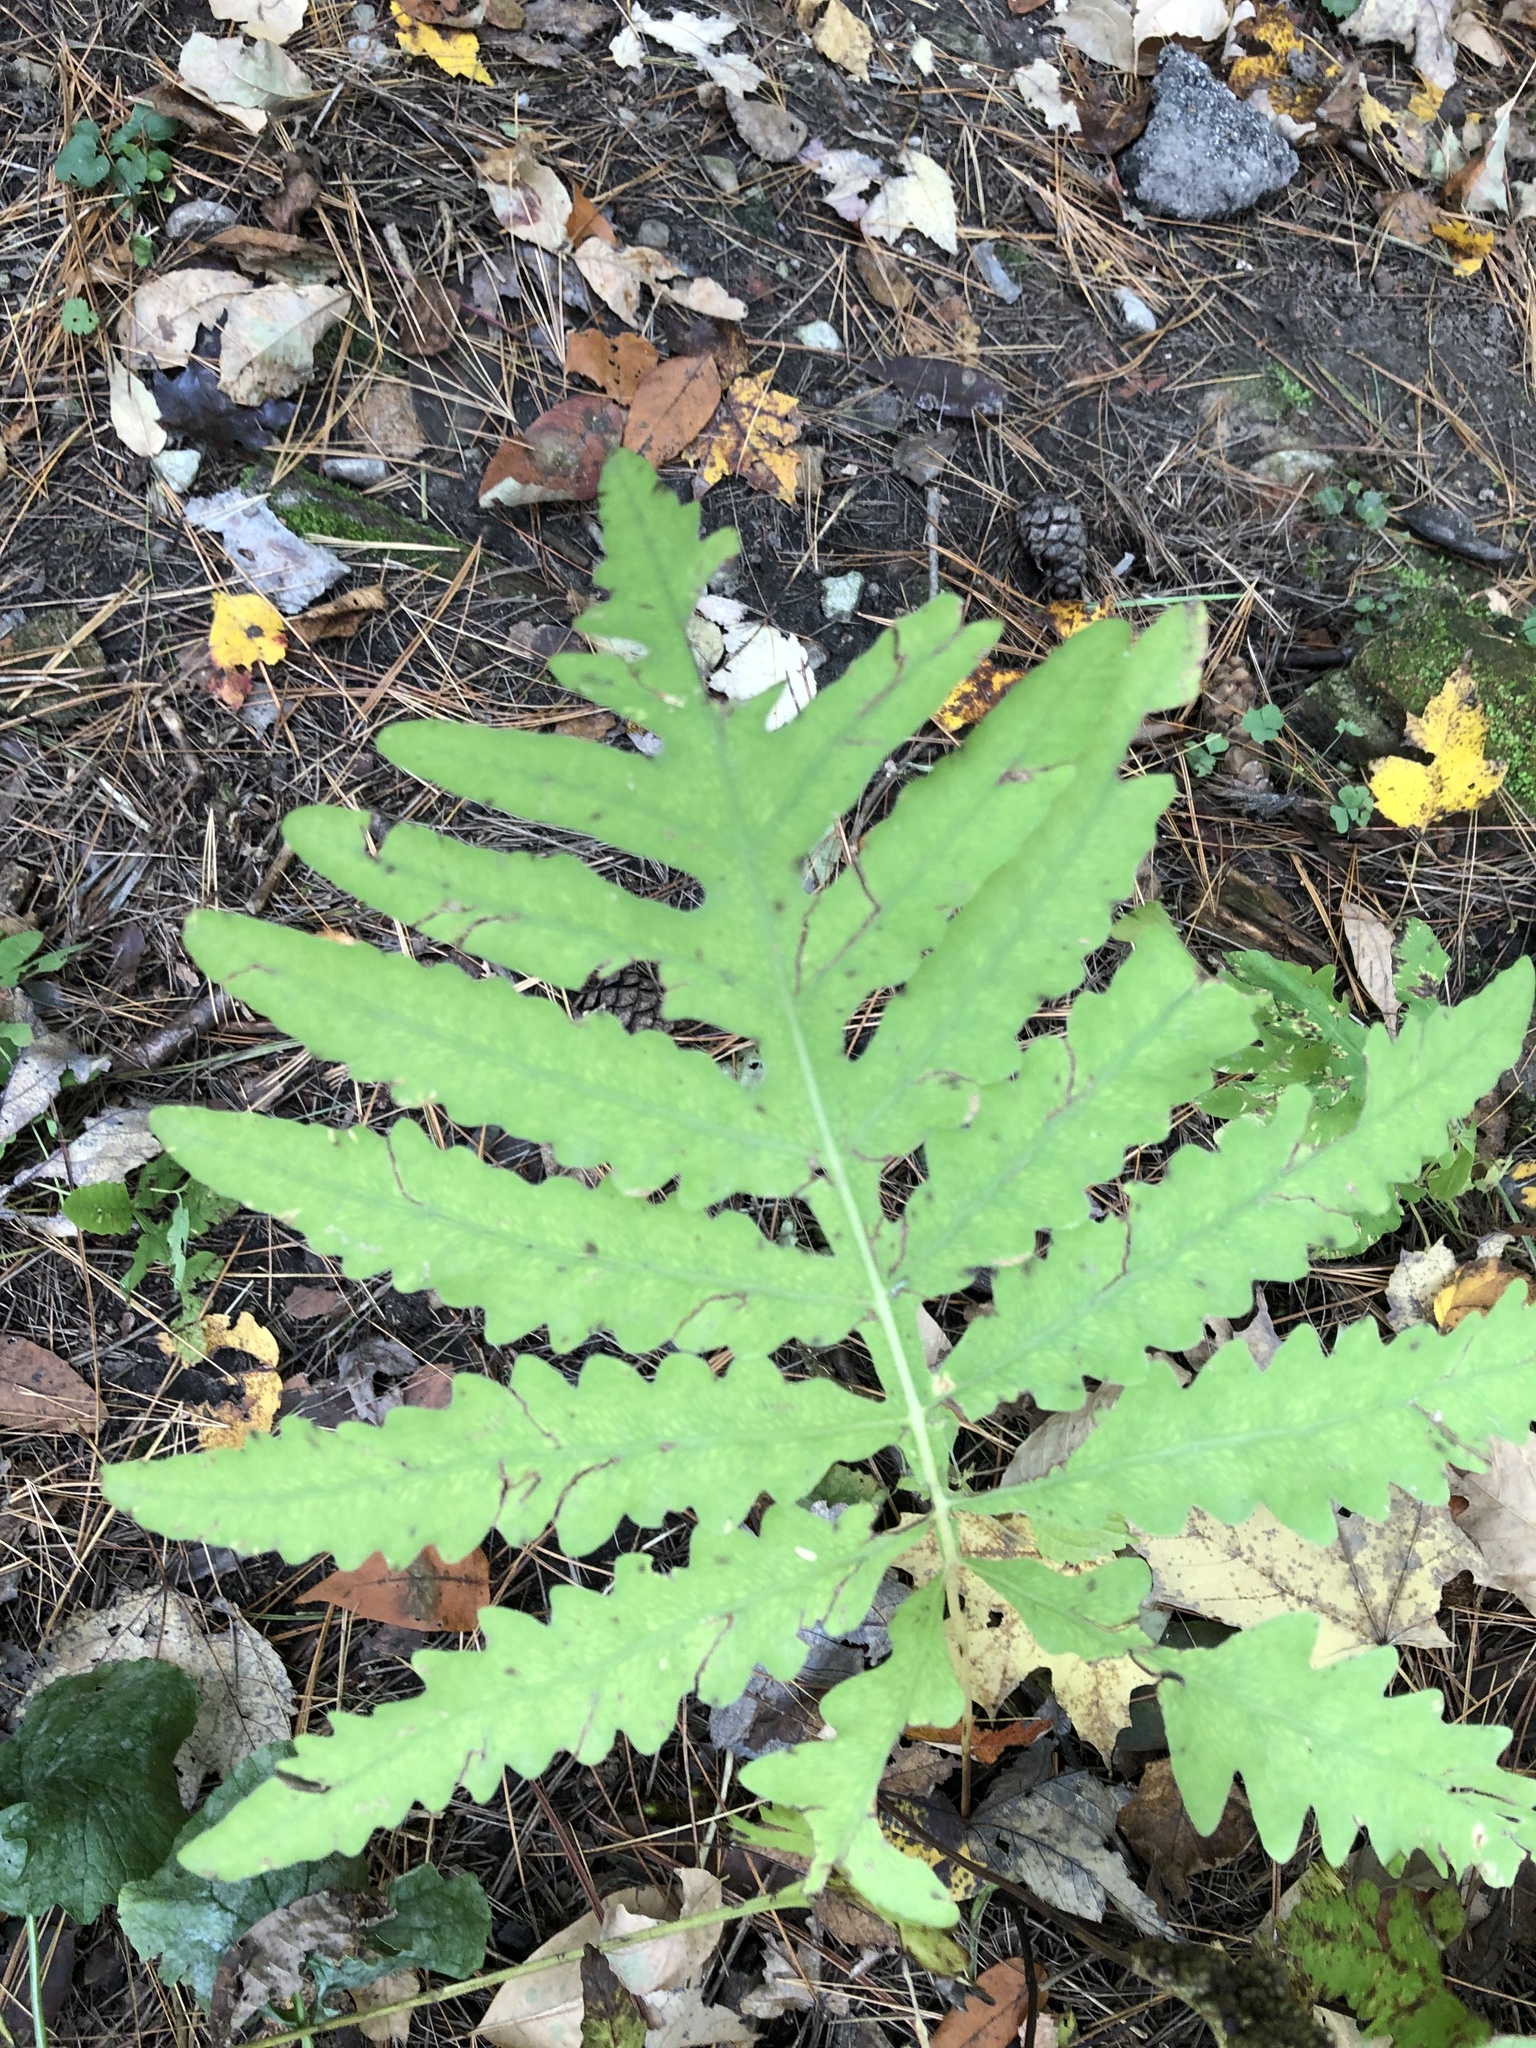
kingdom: Plantae
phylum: Tracheophyta
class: Polypodiopsida
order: Polypodiales
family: Onocleaceae
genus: Onoclea
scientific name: Onoclea sensibilis
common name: Sensitive fern
